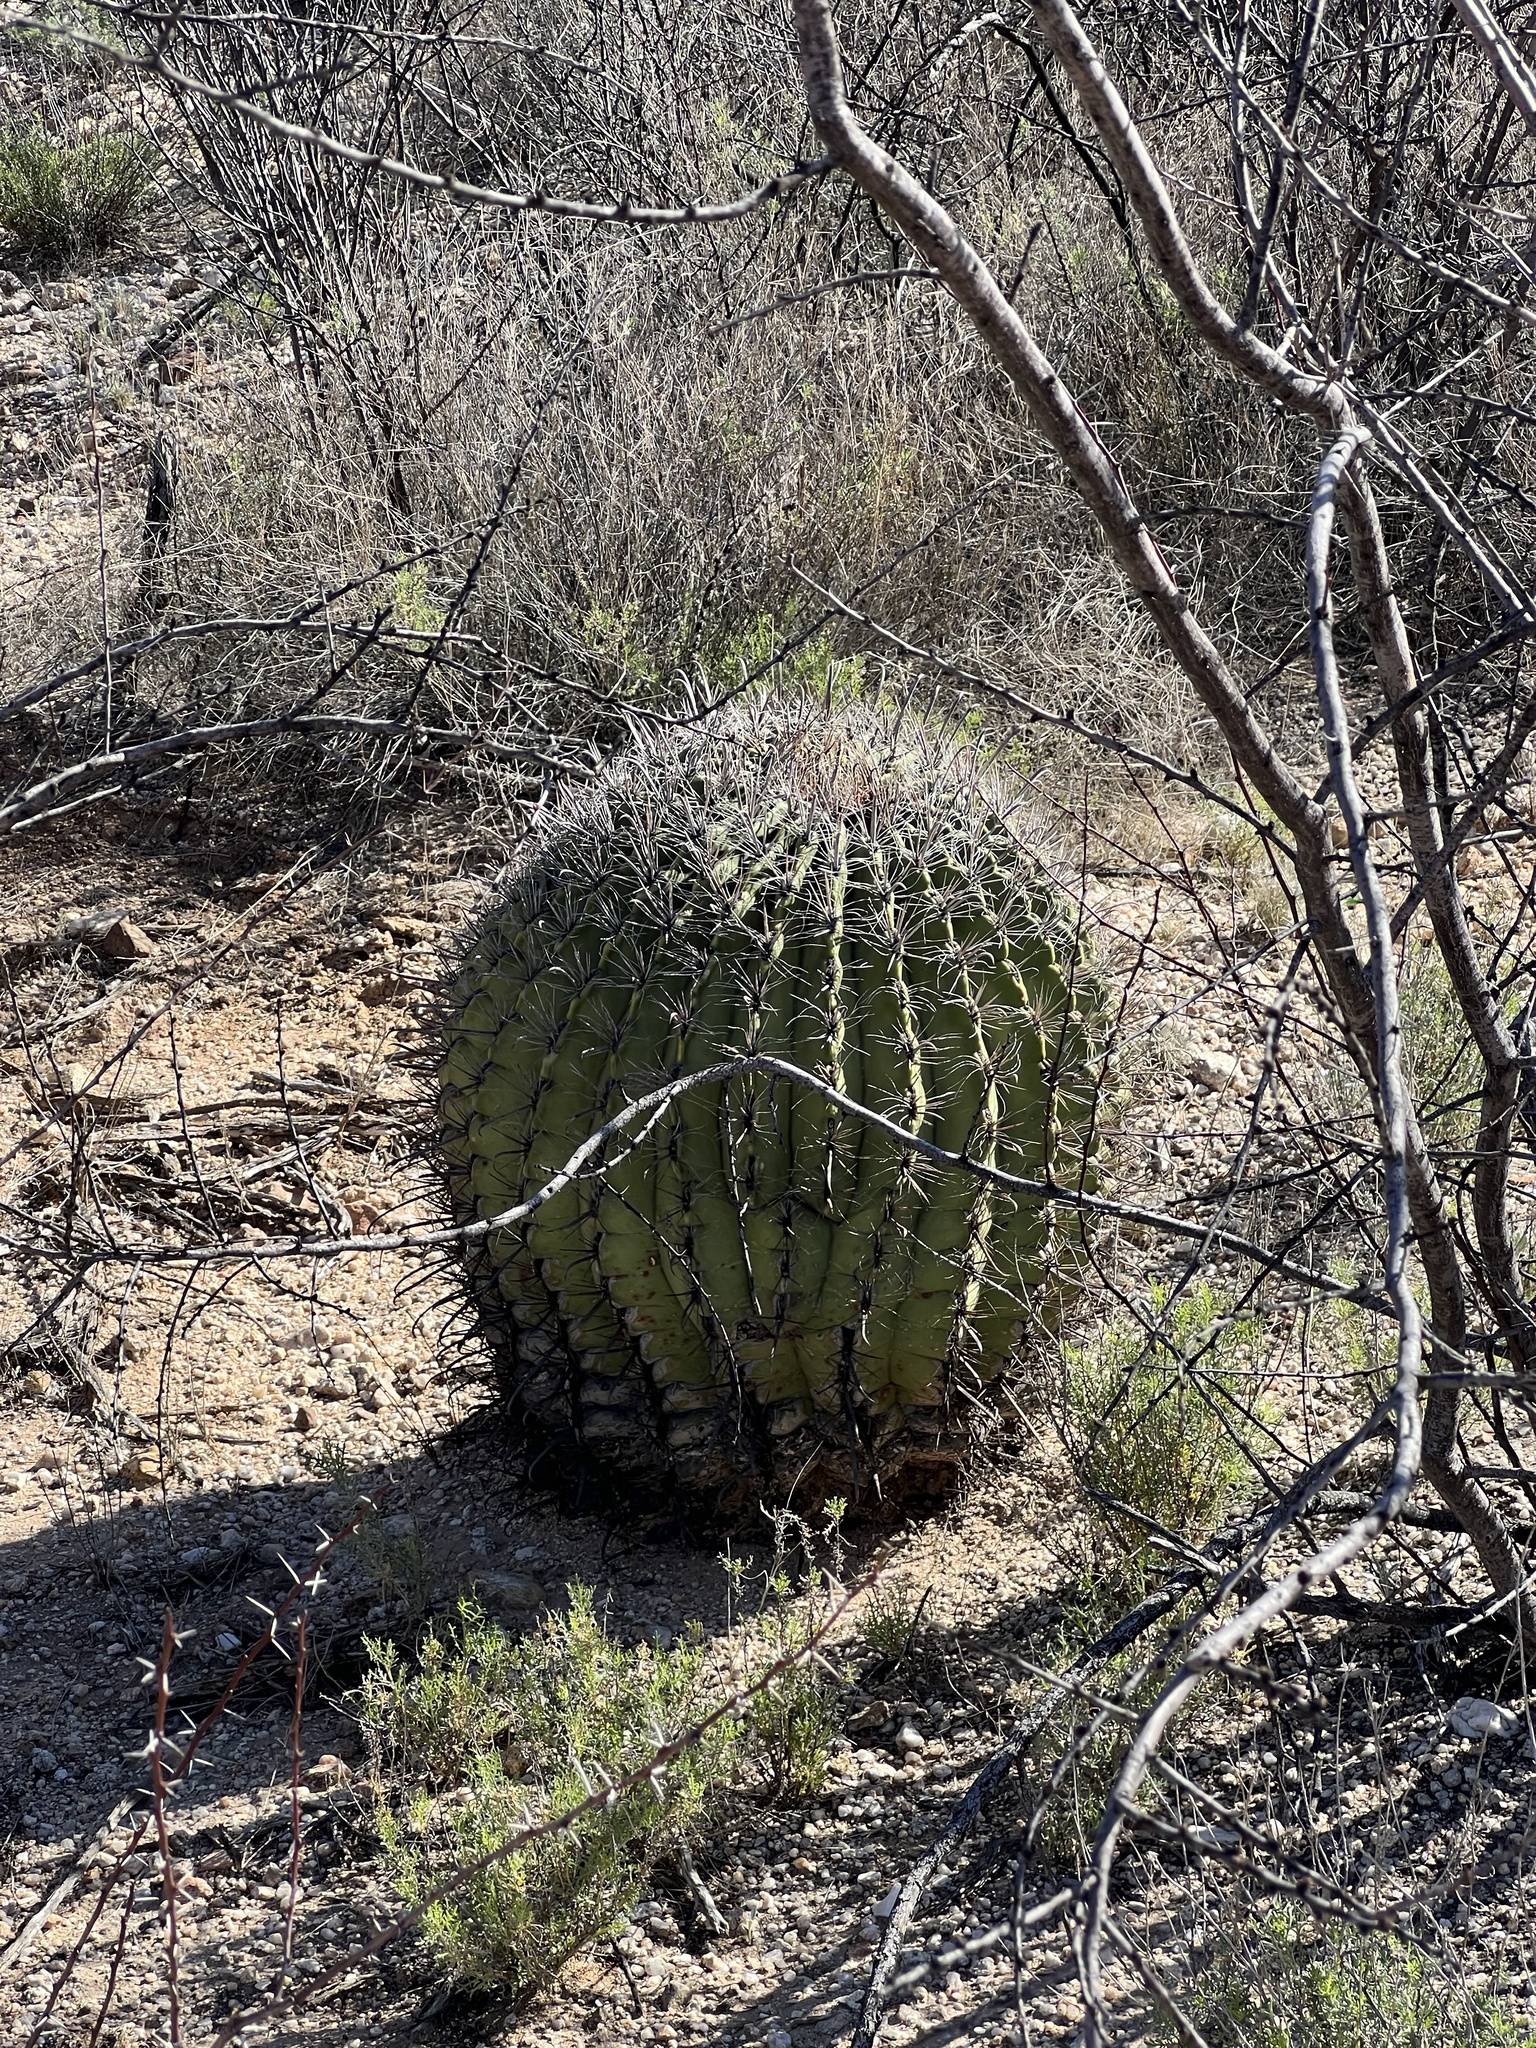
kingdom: Plantae
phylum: Tracheophyta
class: Magnoliopsida
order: Caryophyllales
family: Cactaceae
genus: Ferocactus
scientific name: Ferocactus wislizeni
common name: Candy barrel cactus
